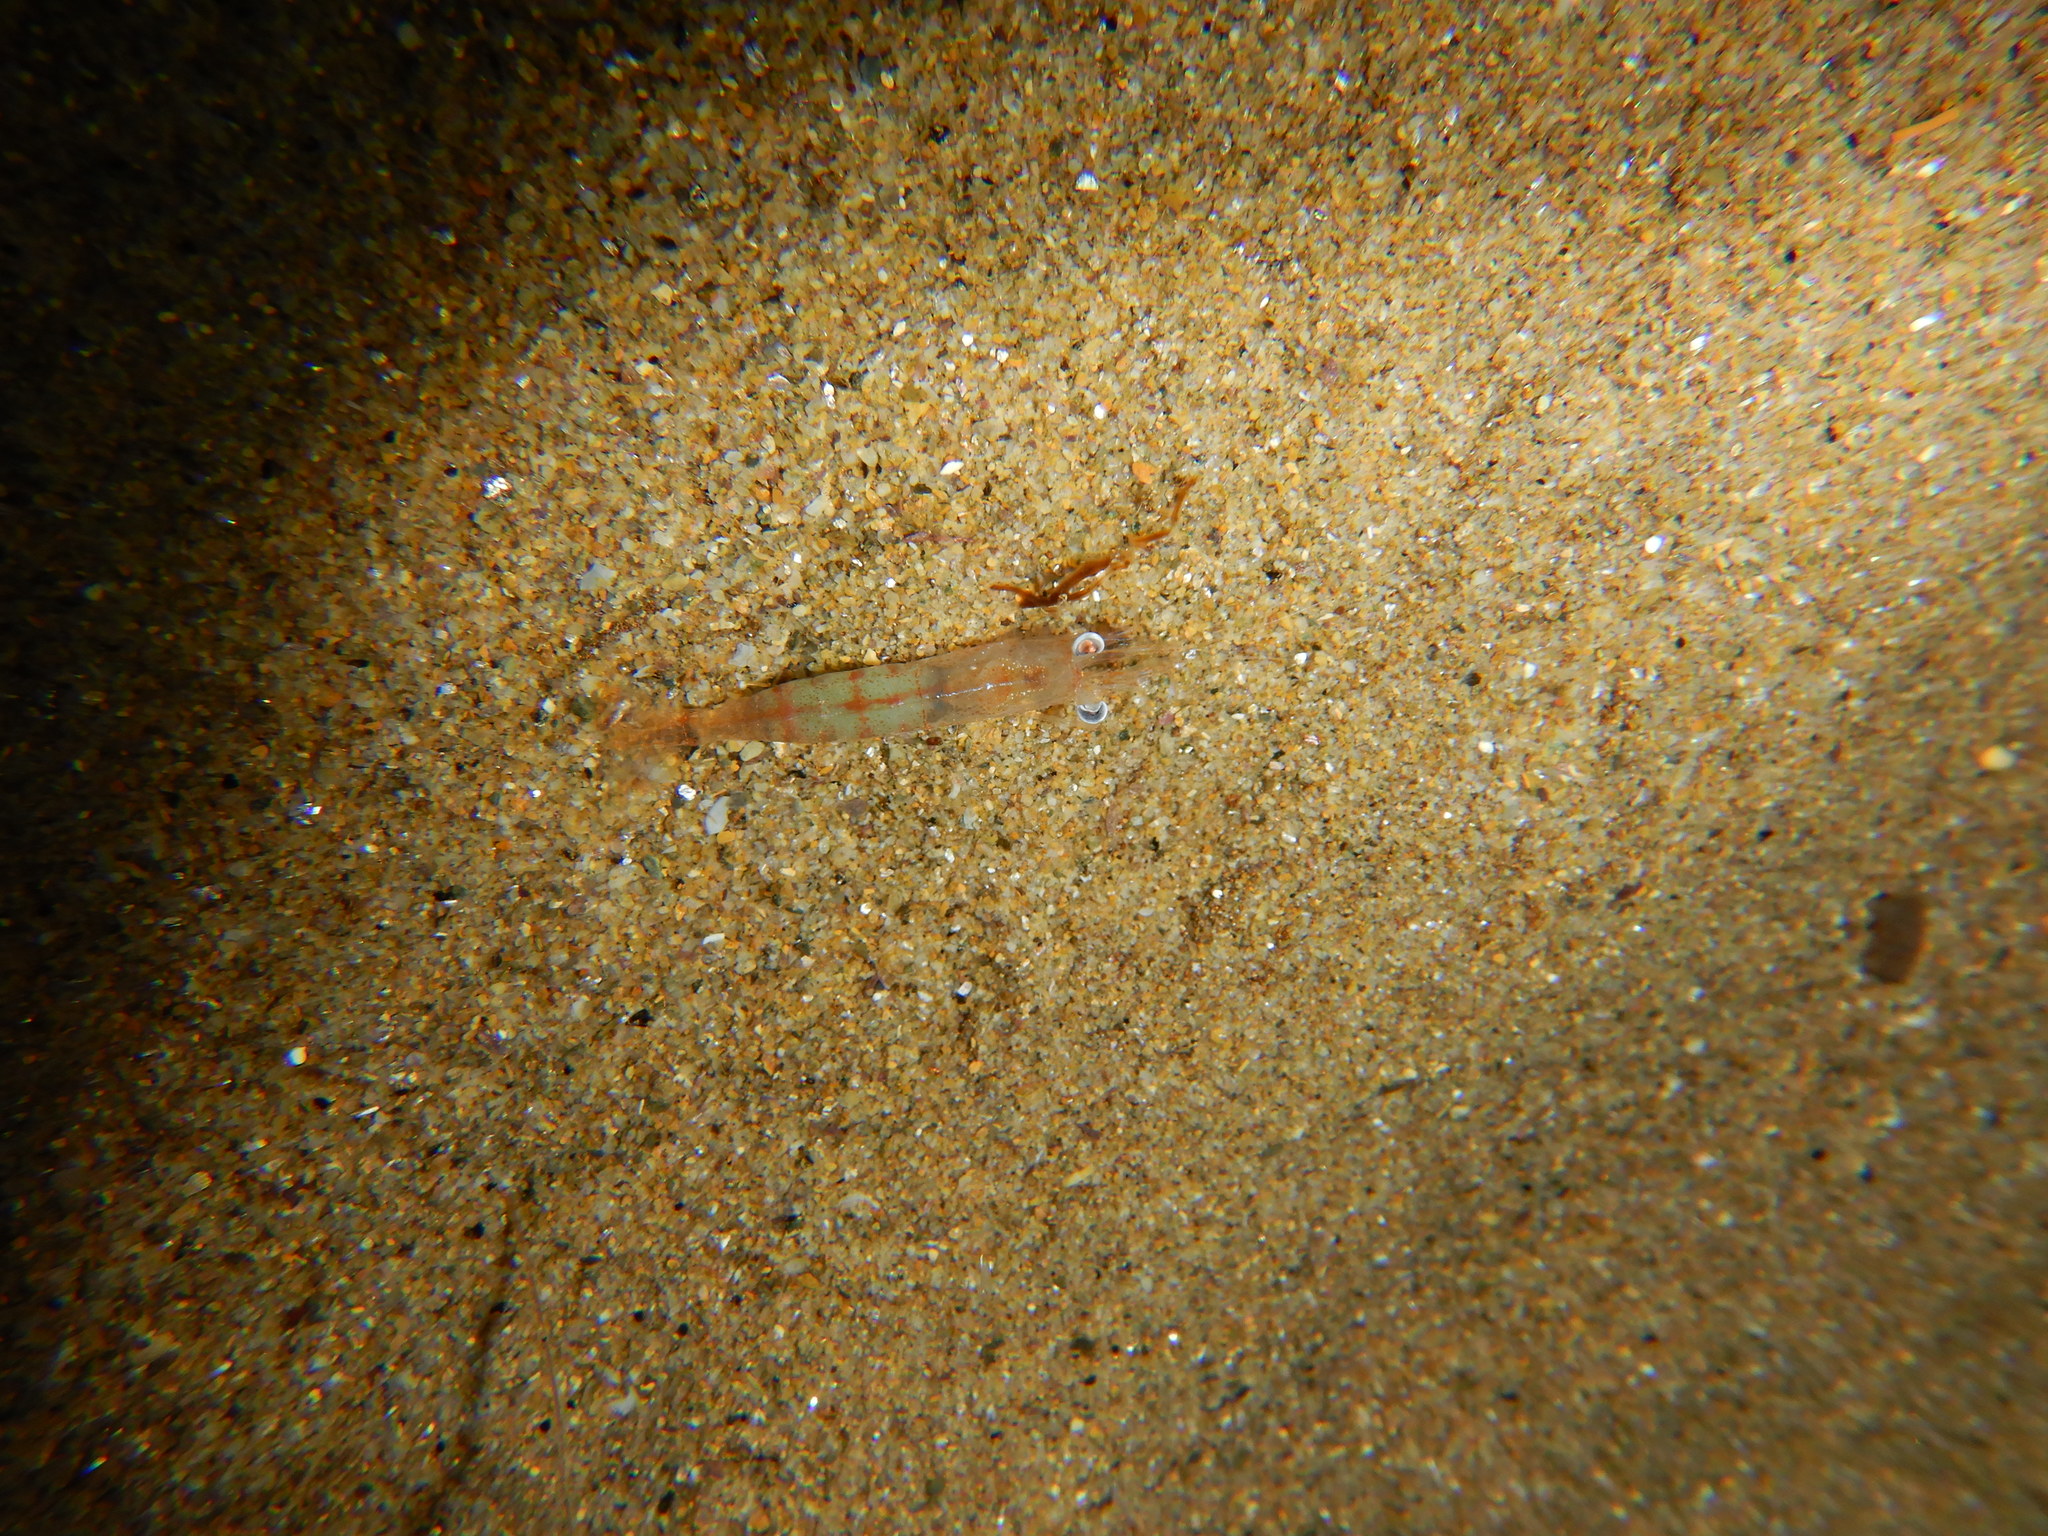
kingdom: Animalia
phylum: Arthropoda
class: Malacostraca
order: Decapoda
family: Processidae
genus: Processa
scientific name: Processa modica
